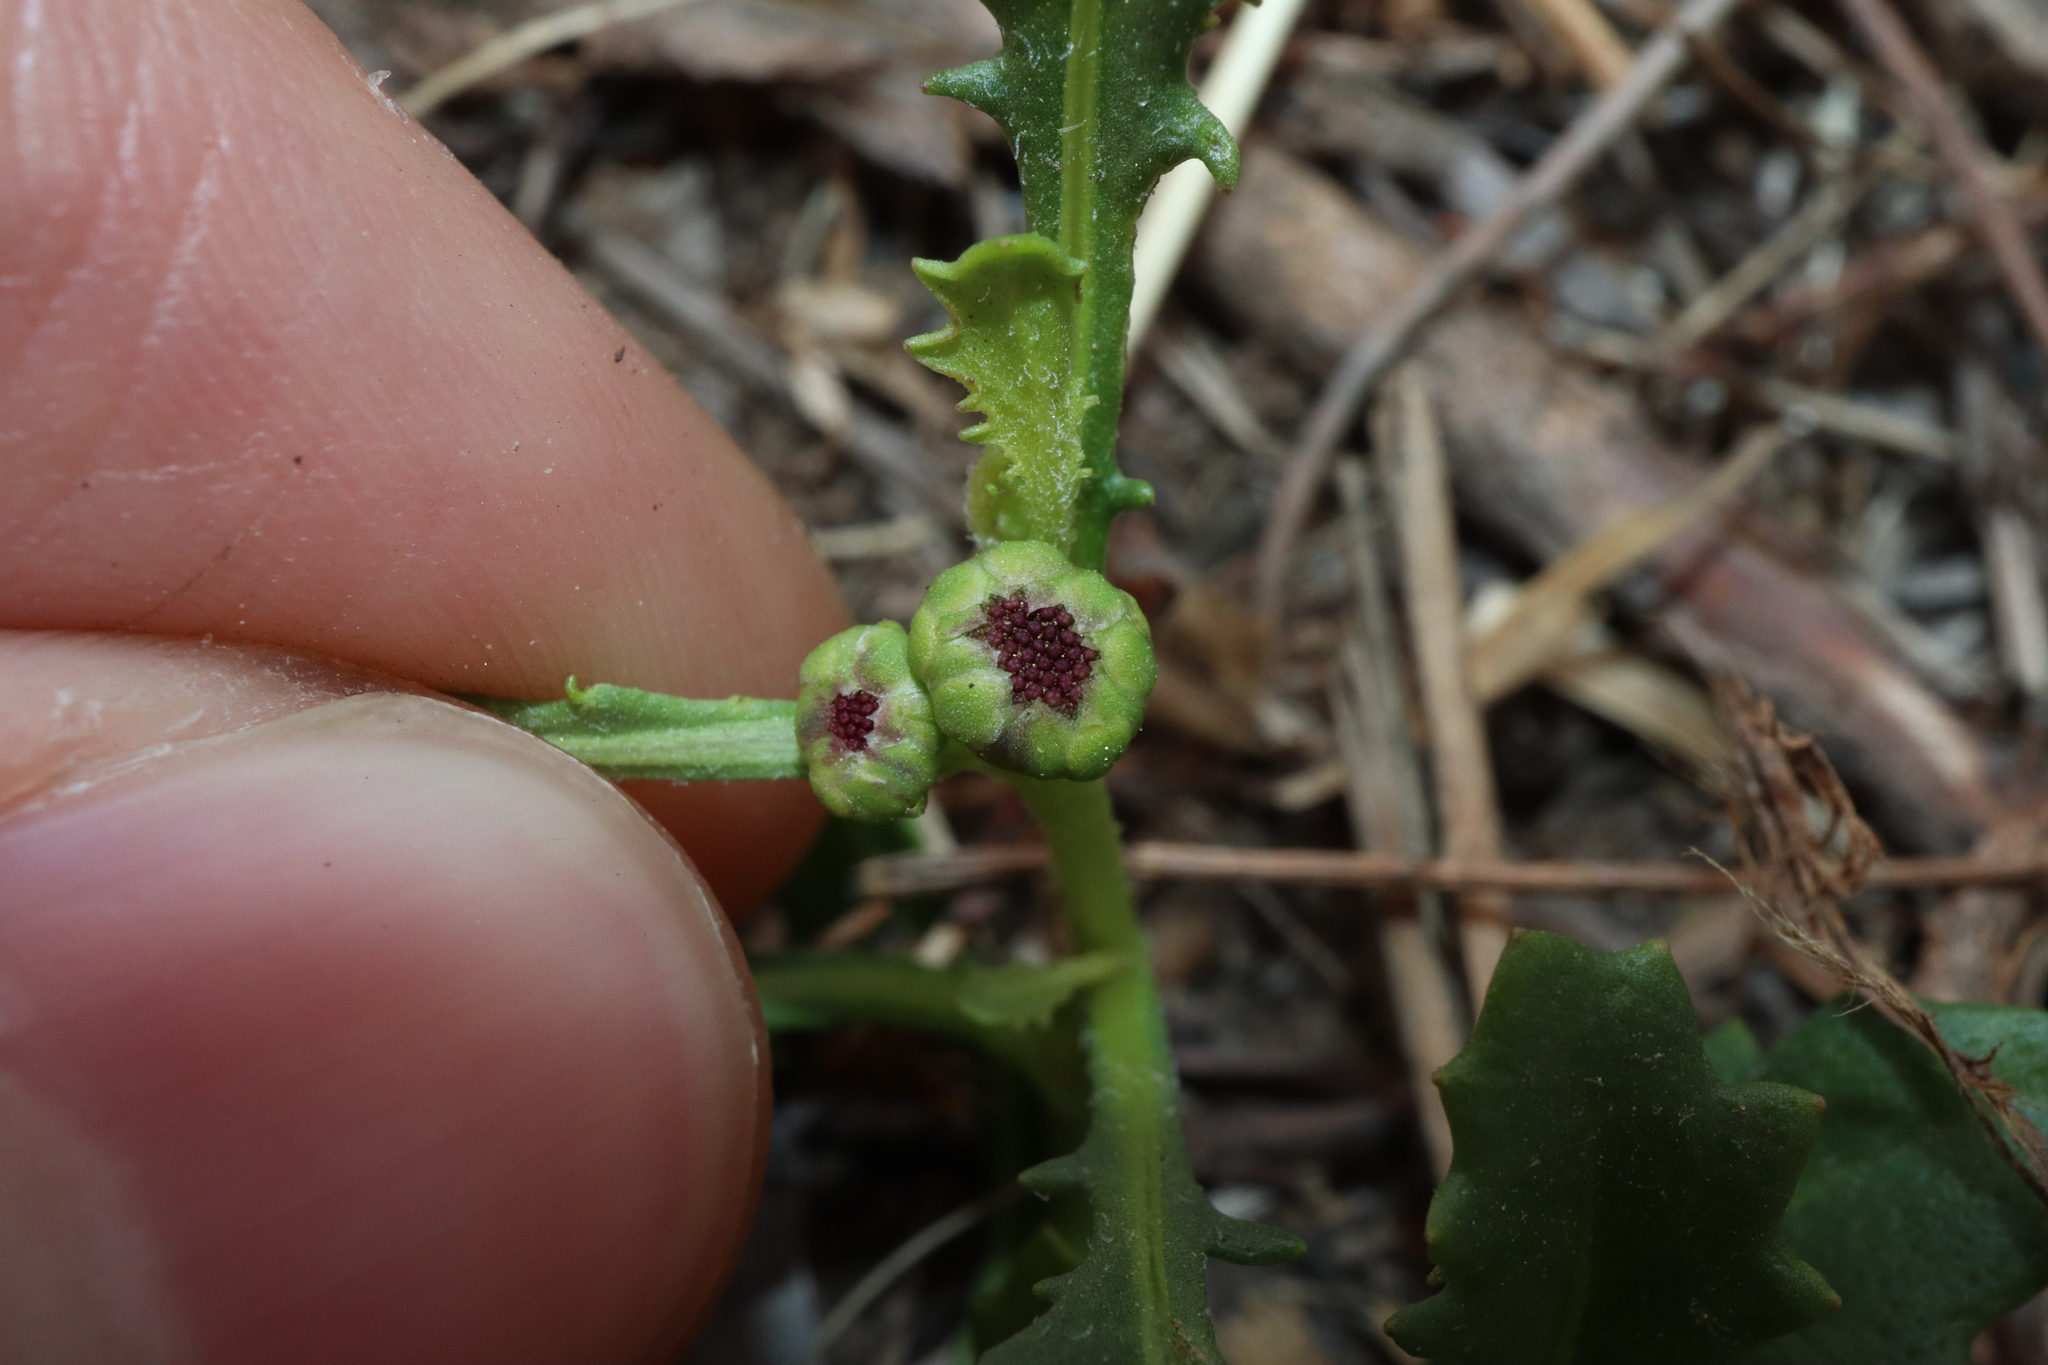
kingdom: Plantae
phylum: Tracheophyta
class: Magnoliopsida
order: Asterales
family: Asteraceae
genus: Sphaeromorphaea
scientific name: Sphaeromorphaea australis
